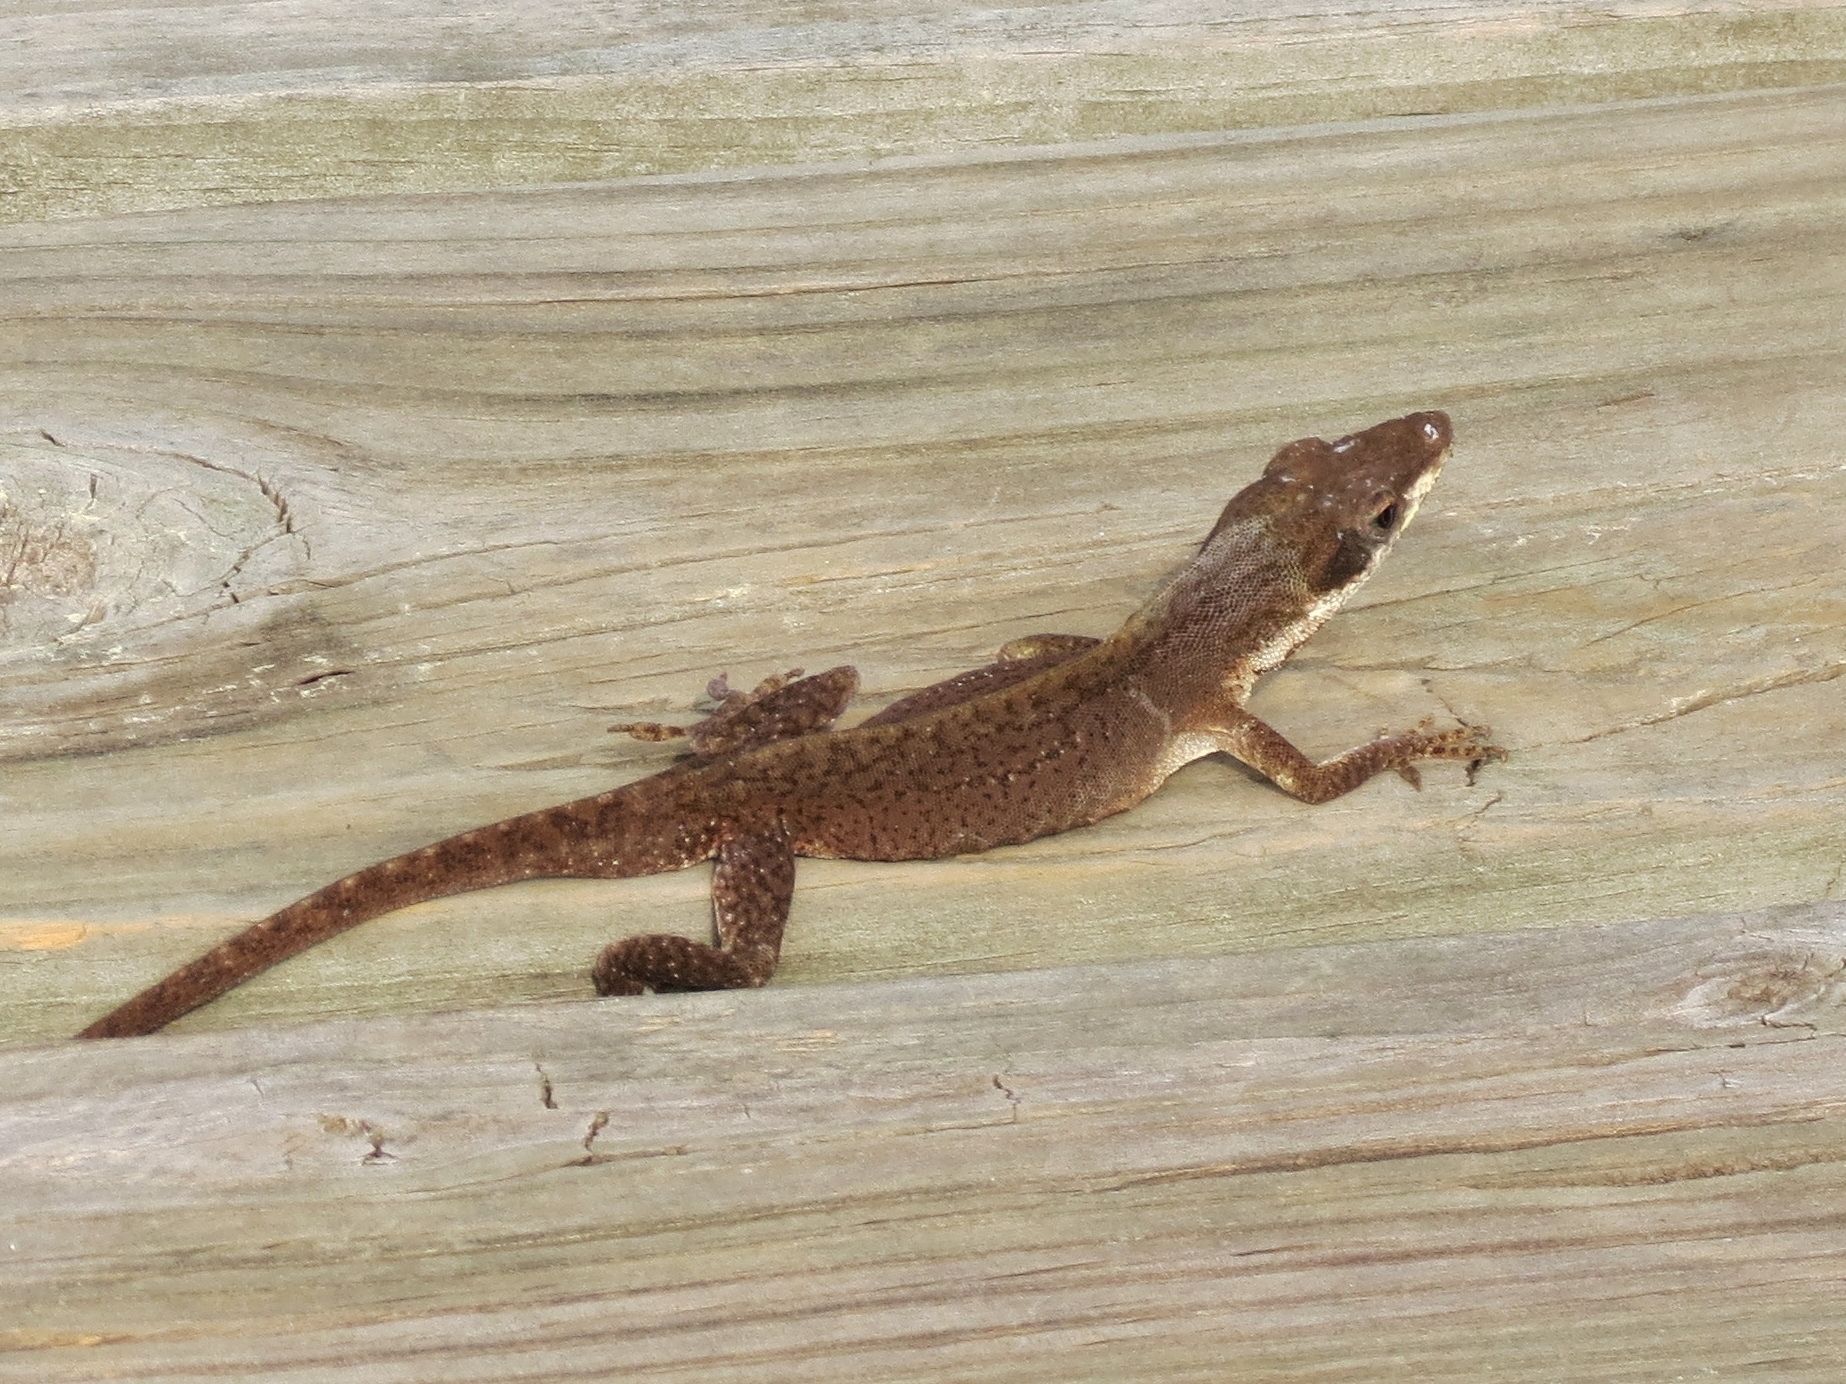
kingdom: Animalia
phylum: Chordata
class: Squamata
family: Dactyloidae
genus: Anolis
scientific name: Anolis carolinensis
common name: Green anole
